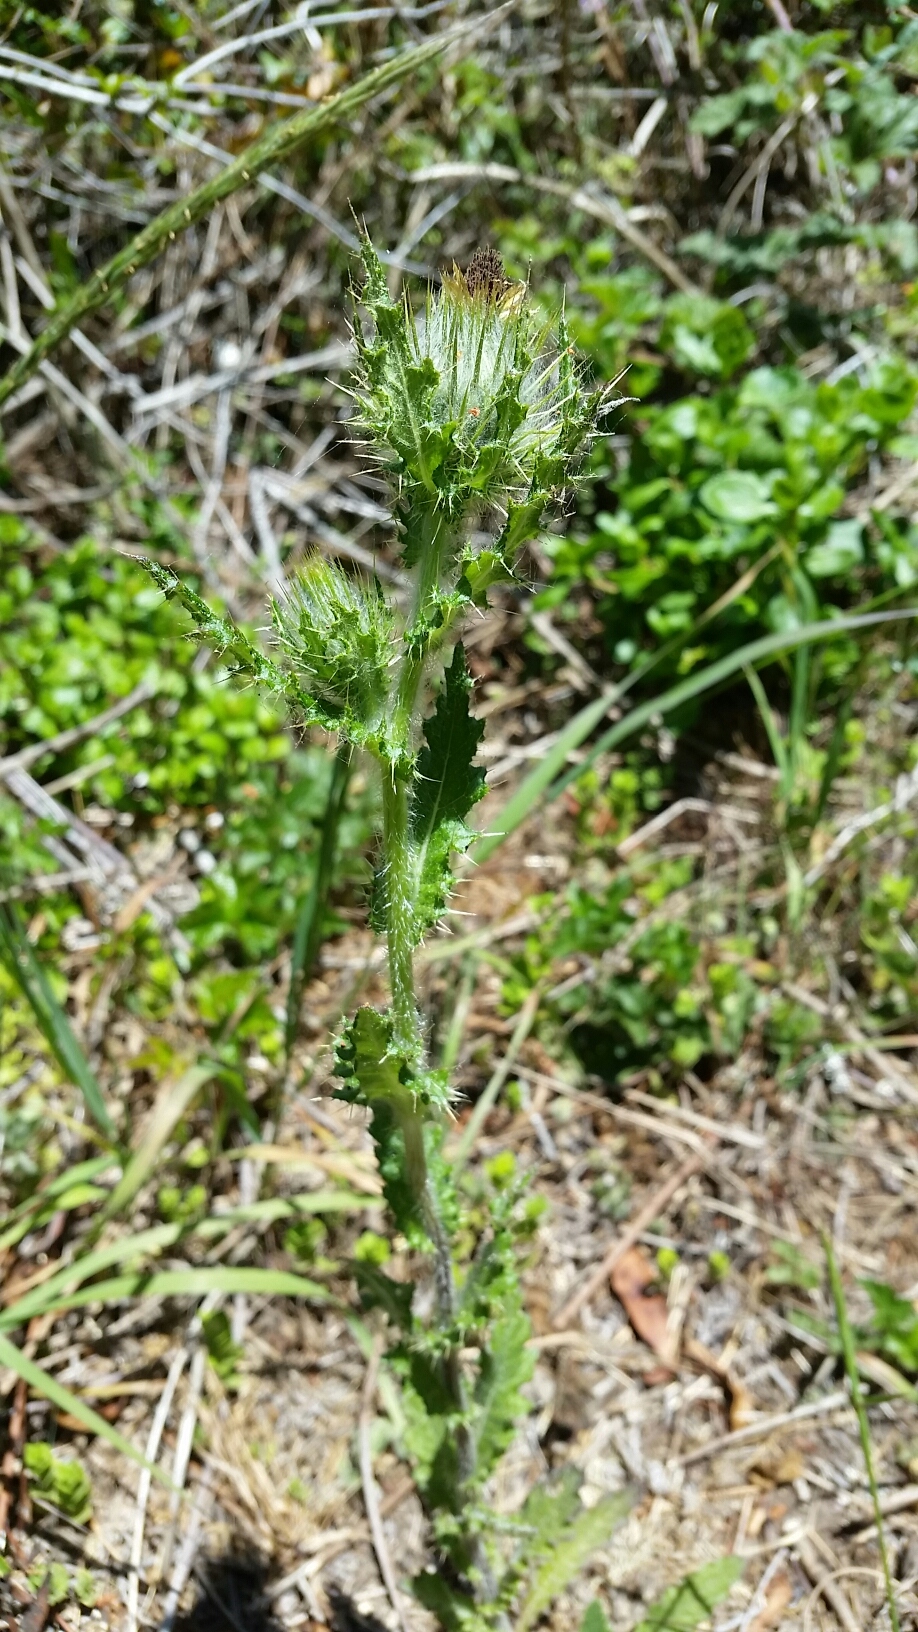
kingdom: Plantae
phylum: Tracheophyta
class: Magnoliopsida
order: Asterales
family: Asteraceae
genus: Cirsium
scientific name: Cirsium brevistylum
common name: Indian thistle
